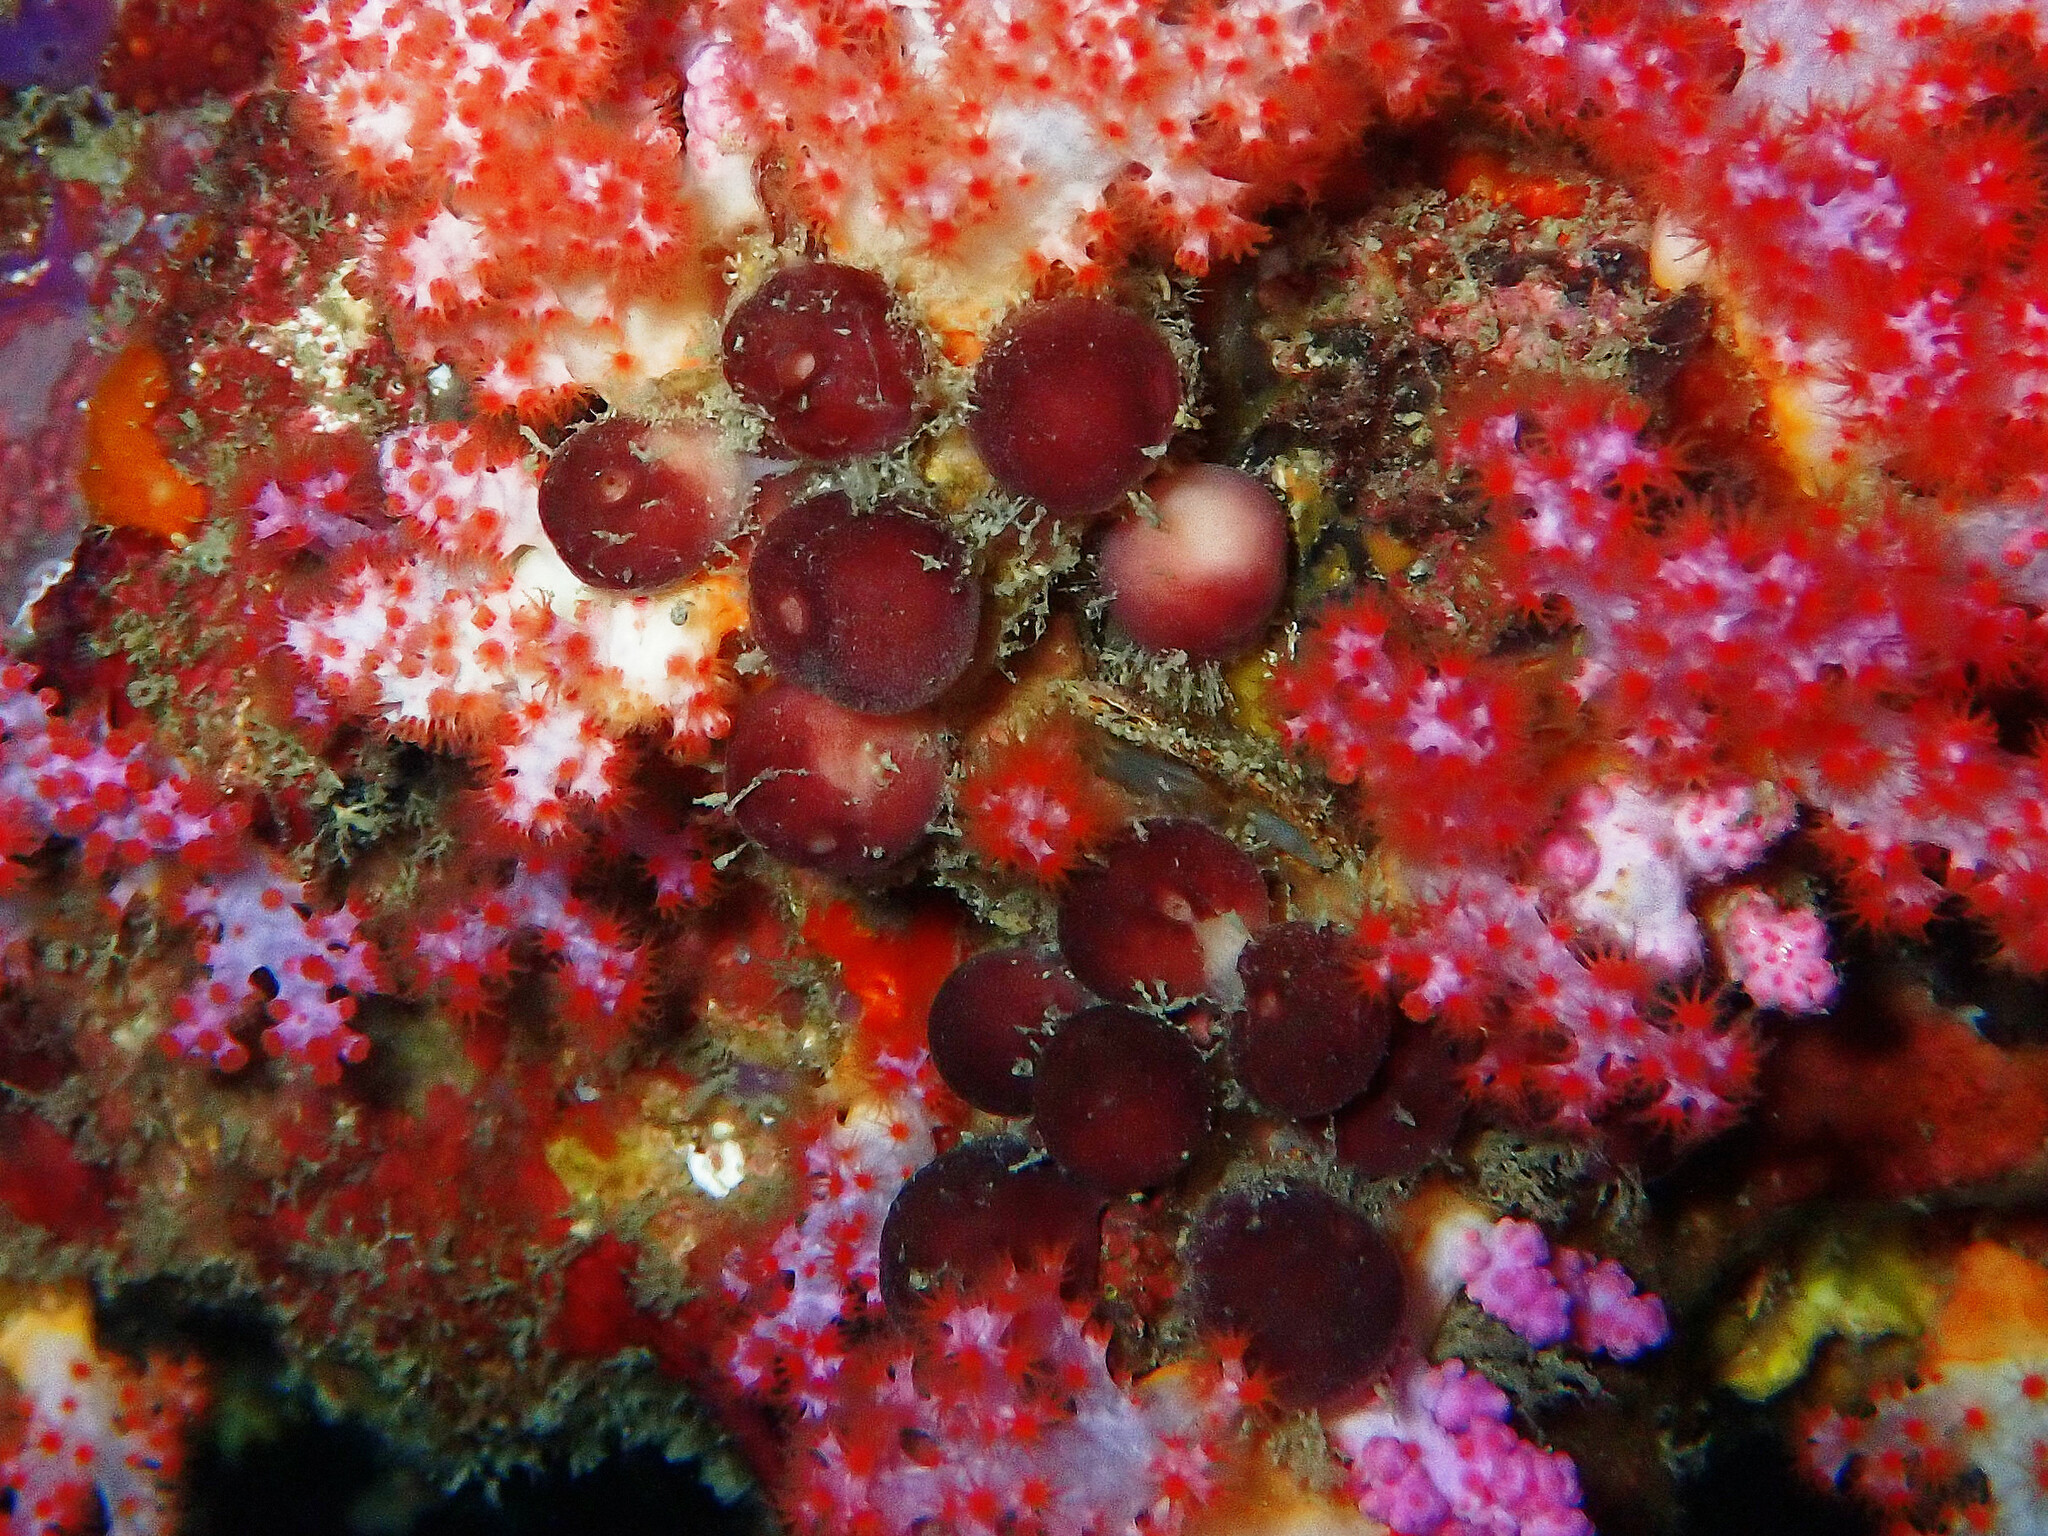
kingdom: Animalia
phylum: Porifera
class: Demospongiae
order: Tetractinellida
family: Ancorinidae
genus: Stelletta
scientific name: Stelletta clavosa
